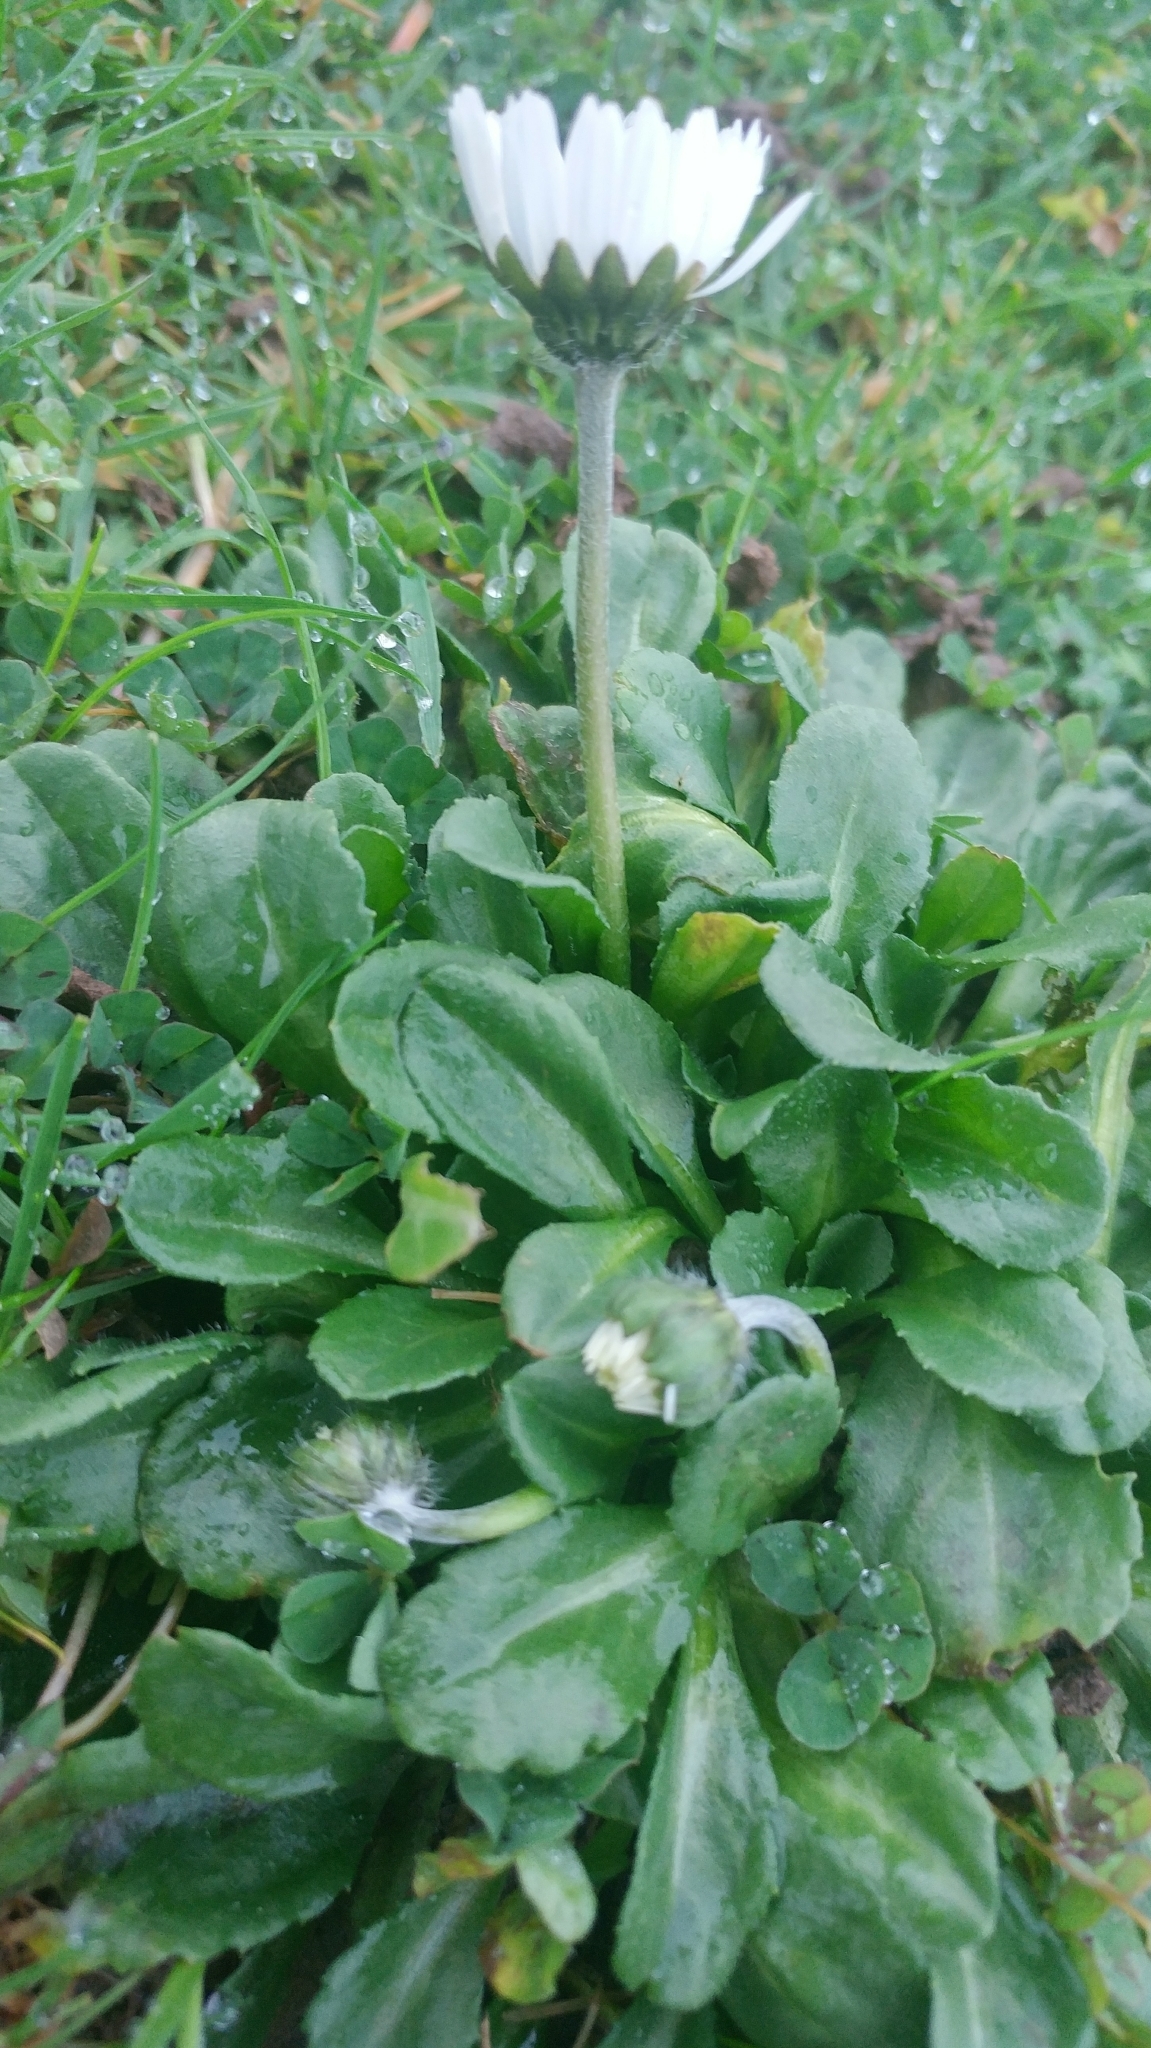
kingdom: Plantae
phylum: Tracheophyta
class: Magnoliopsida
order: Asterales
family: Asteraceae
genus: Bellis
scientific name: Bellis perennis
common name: Lawndaisy
